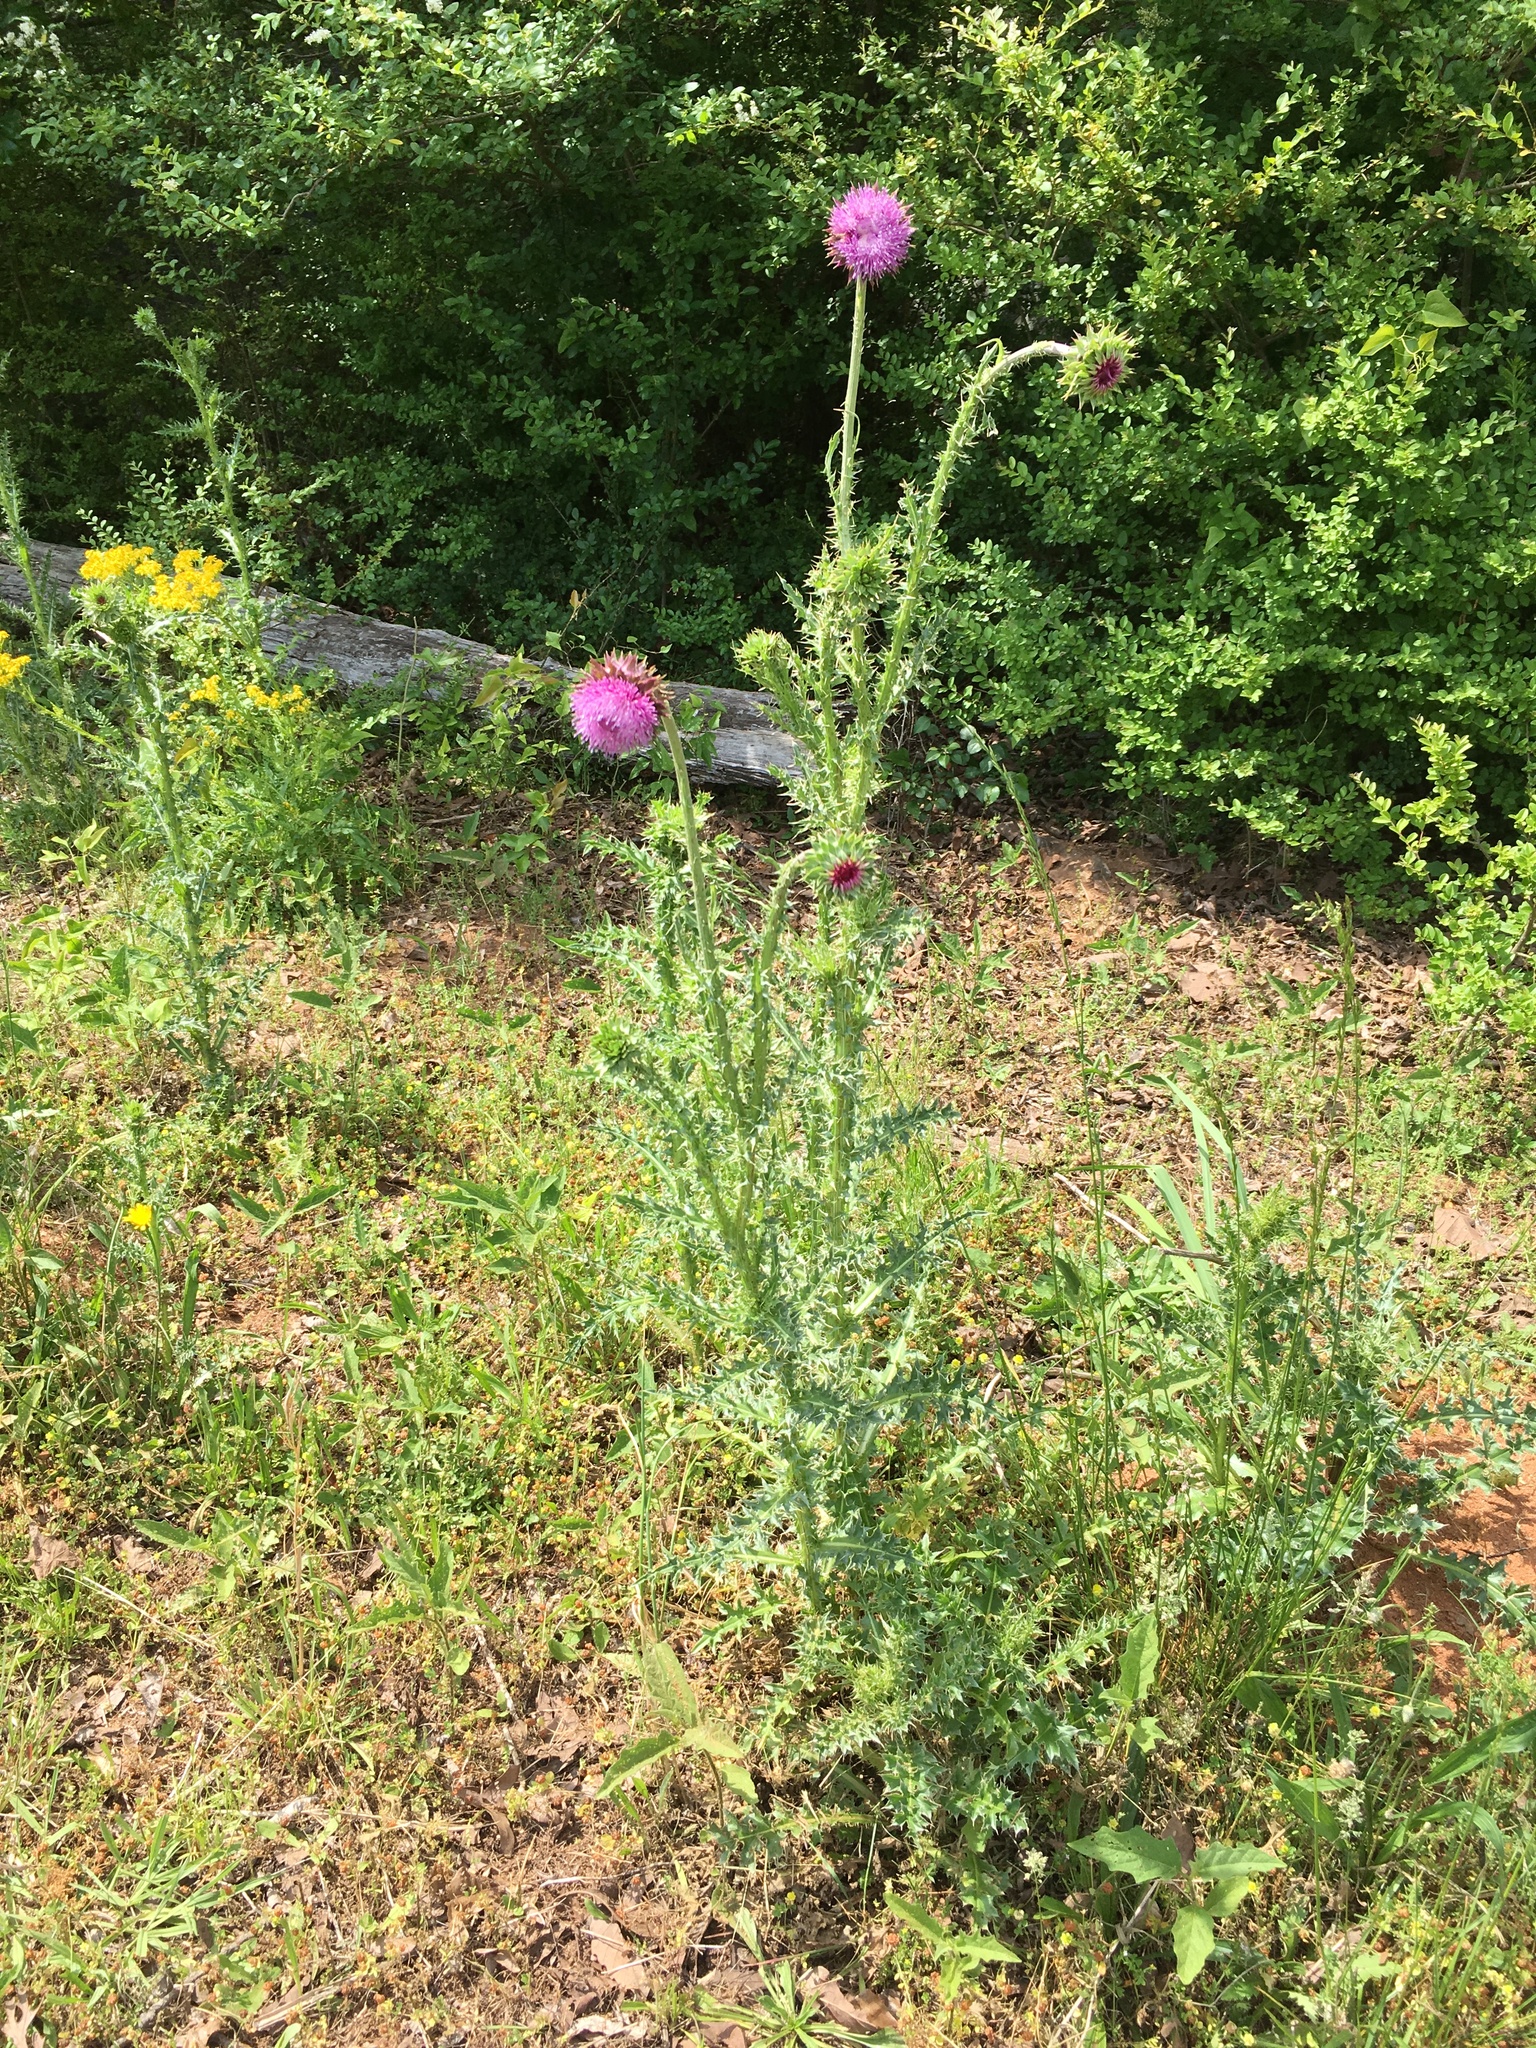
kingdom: Plantae
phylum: Tracheophyta
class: Magnoliopsida
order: Asterales
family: Asteraceae
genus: Carduus
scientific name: Carduus nutans
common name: Musk thistle
